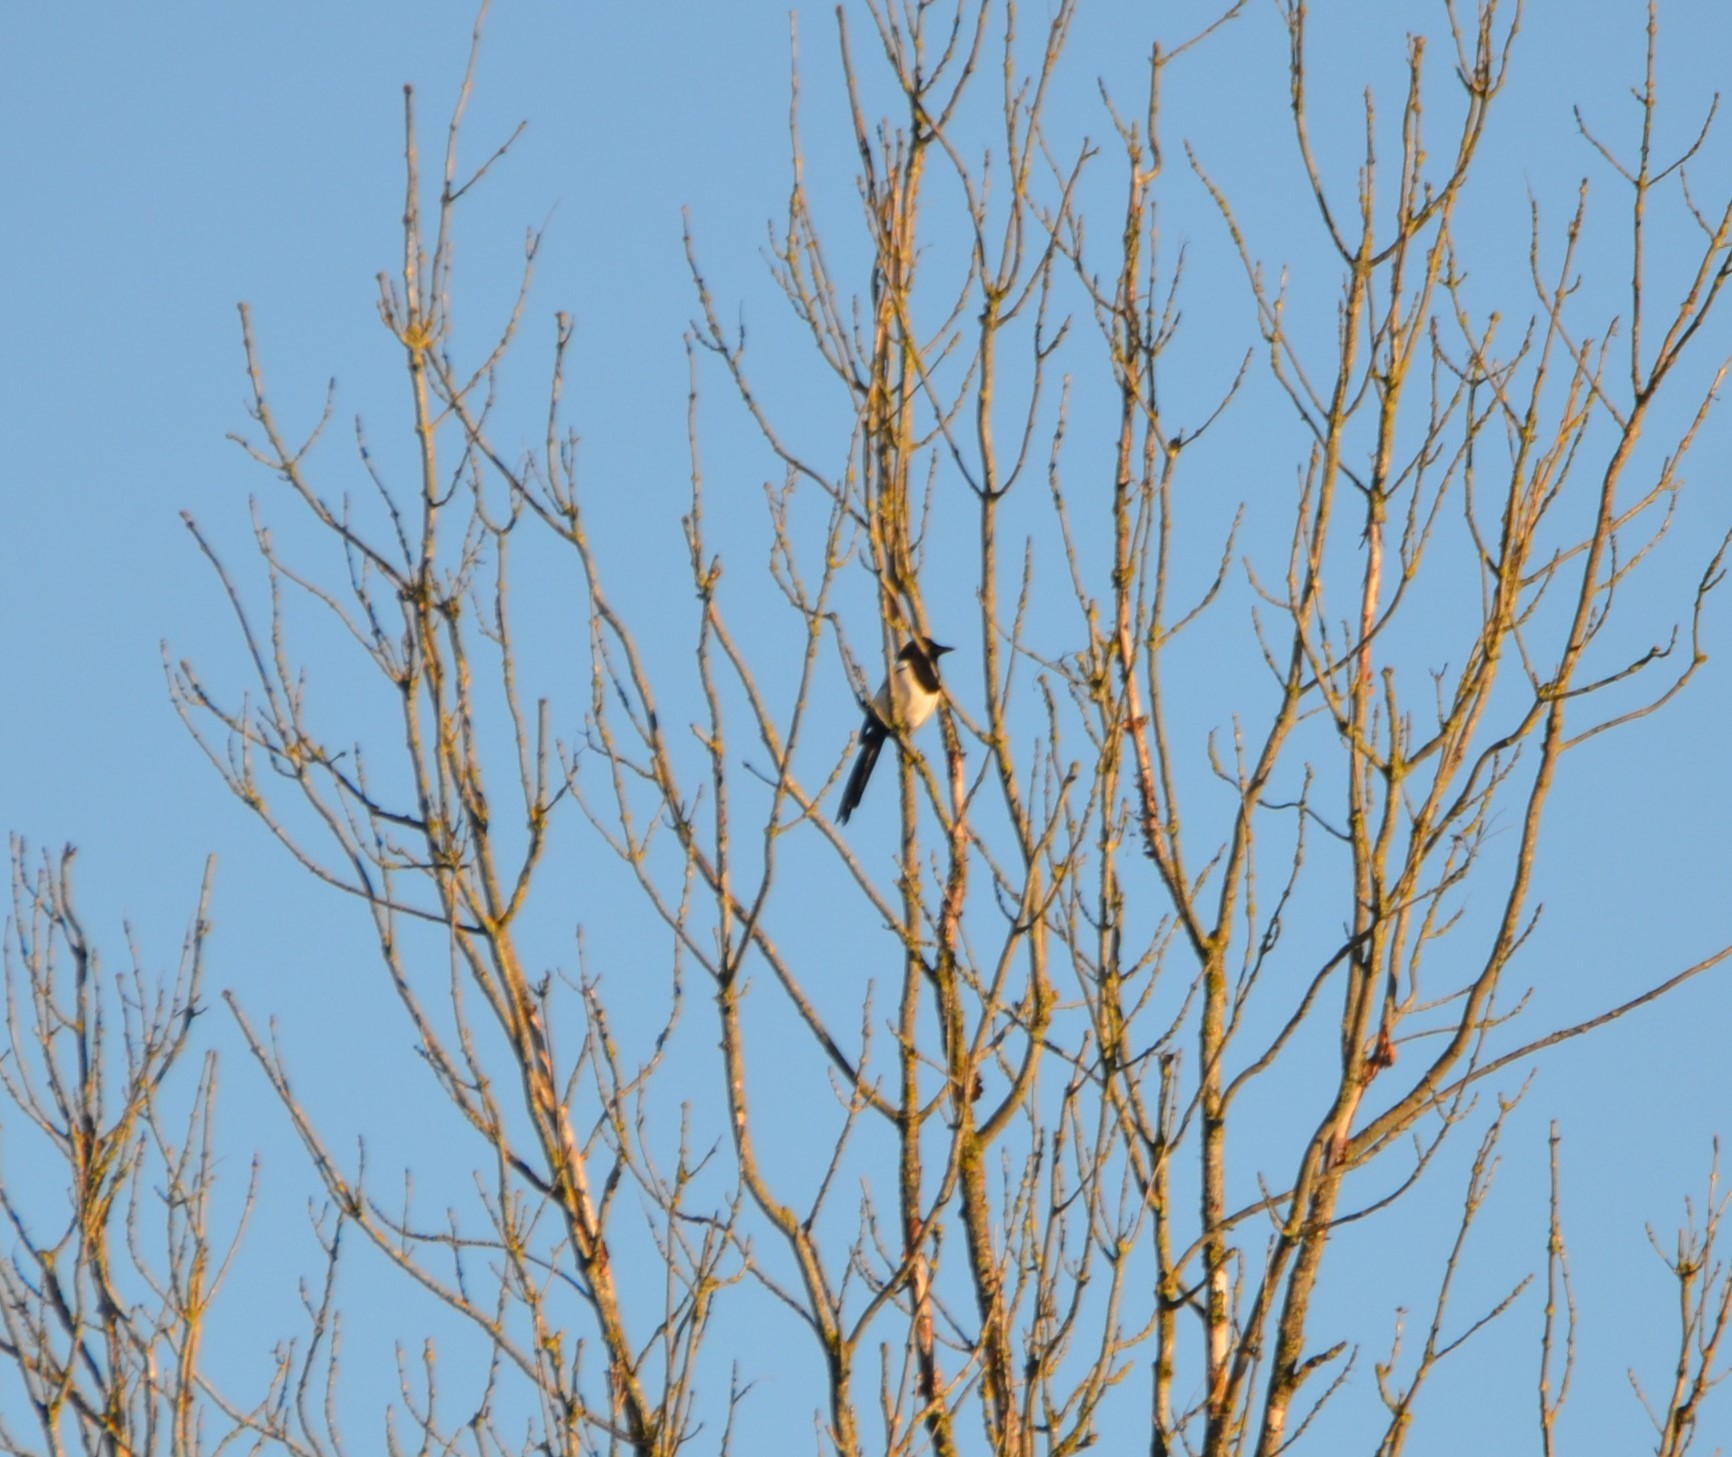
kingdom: Animalia
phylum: Chordata
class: Aves
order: Passeriformes
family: Corvidae
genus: Pica
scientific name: Pica pica
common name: Eurasian magpie
